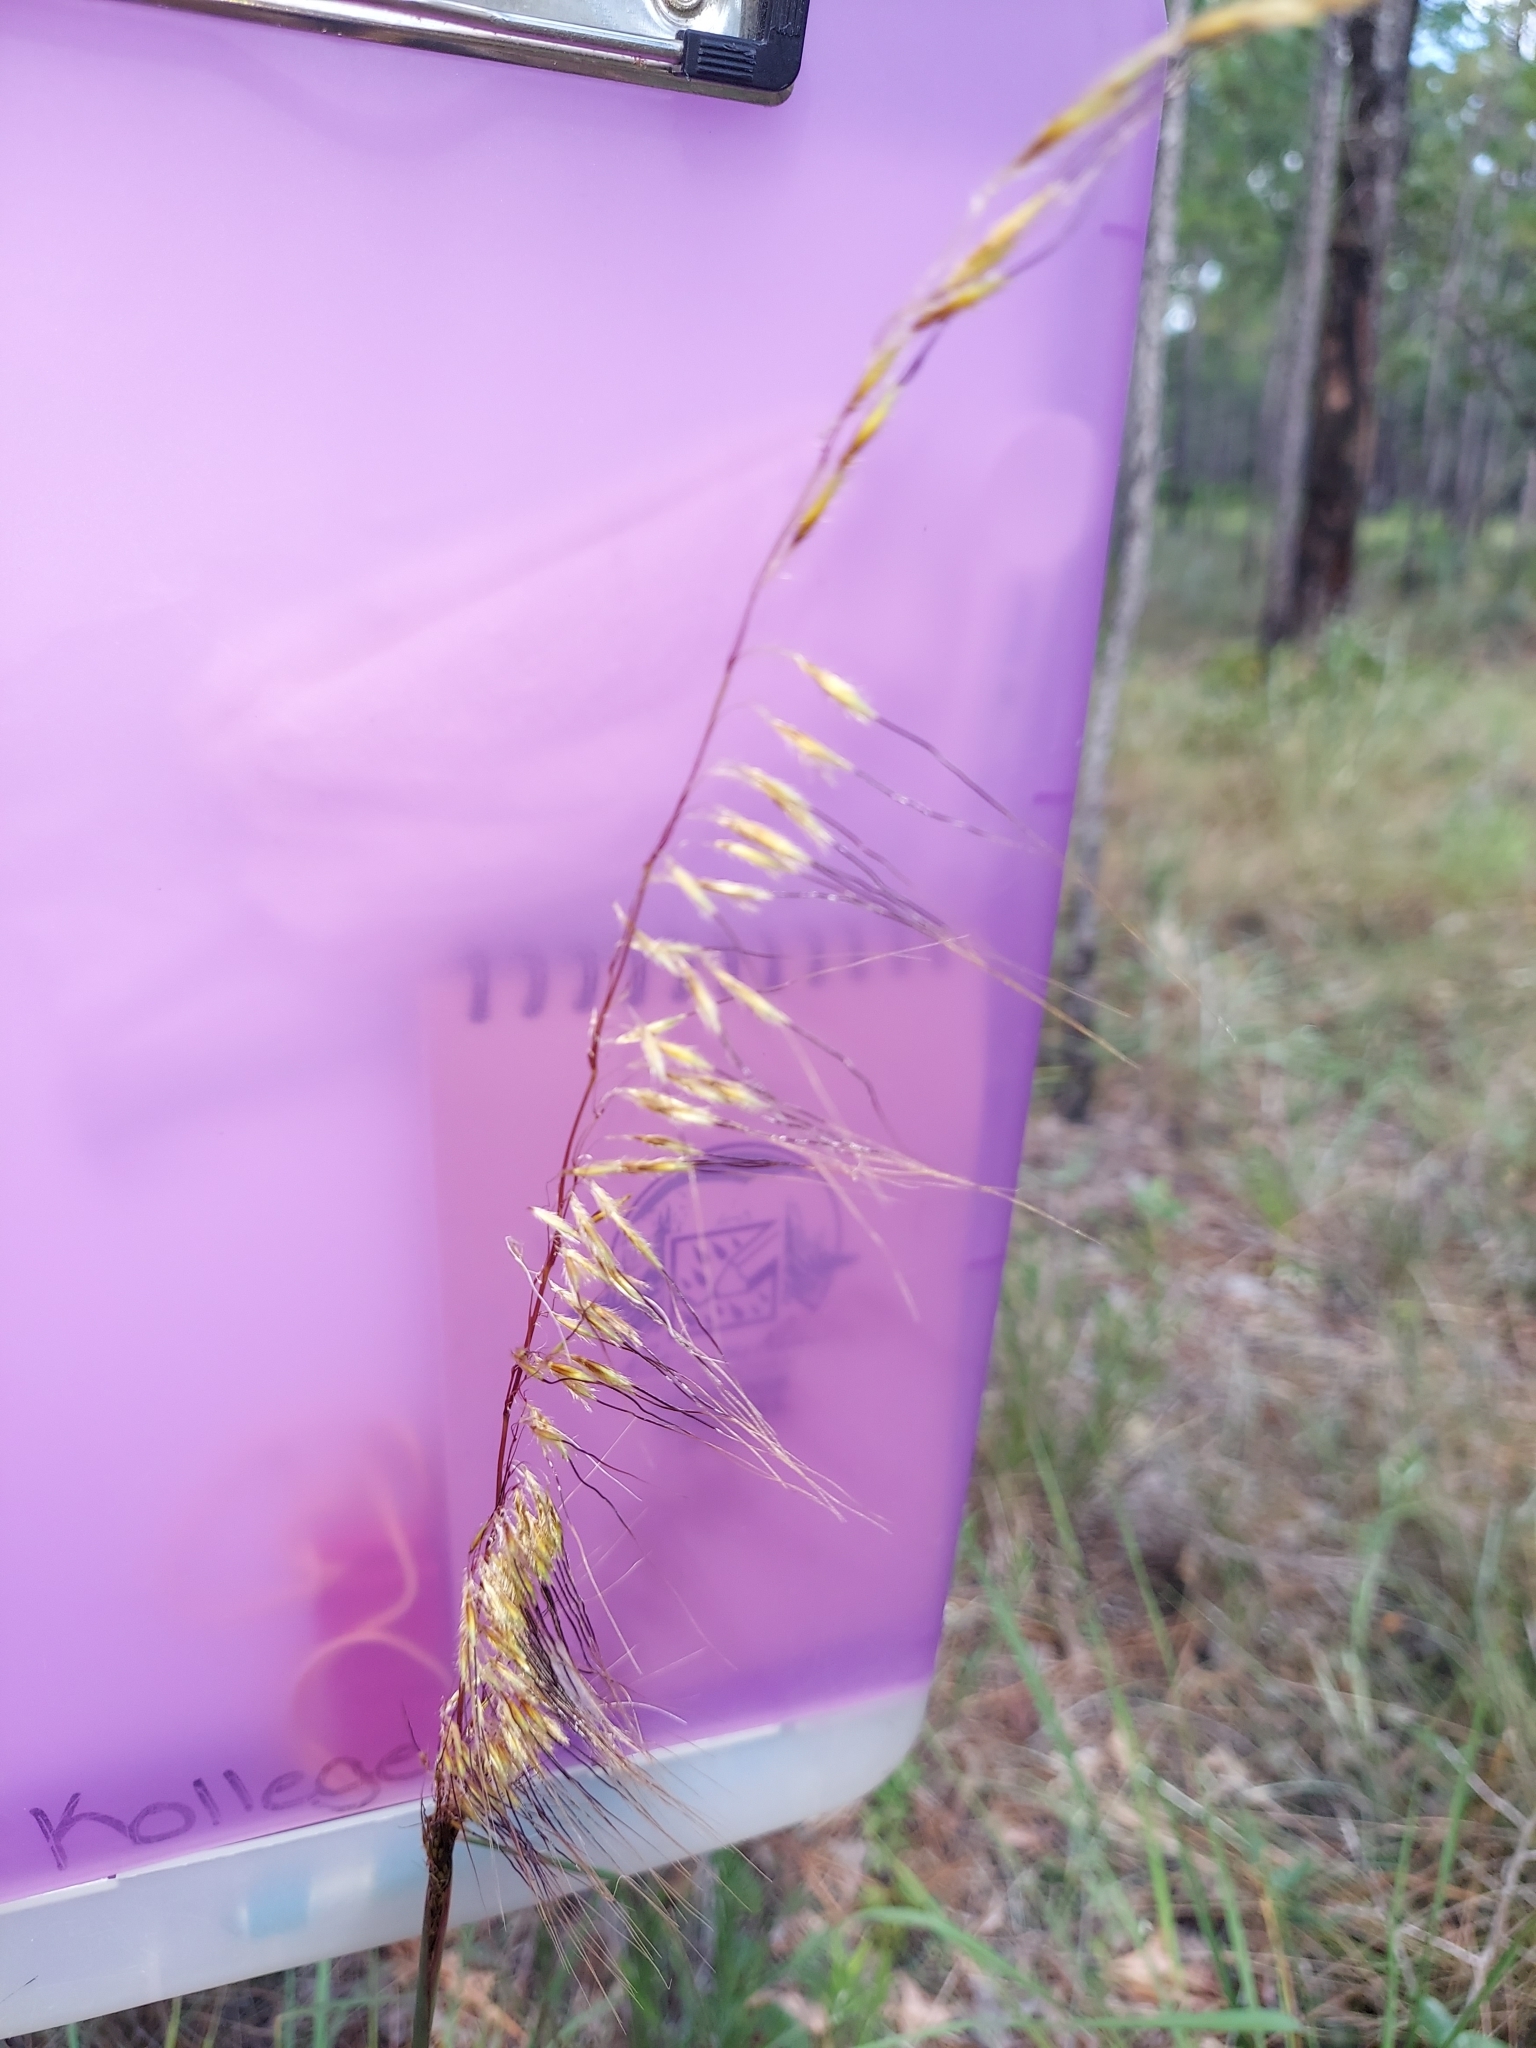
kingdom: Plantae
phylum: Tracheophyta
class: Liliopsida
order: Poales
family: Poaceae
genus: Sorghastrum
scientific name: Sorghastrum secundum
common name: Lopsided indian grass
